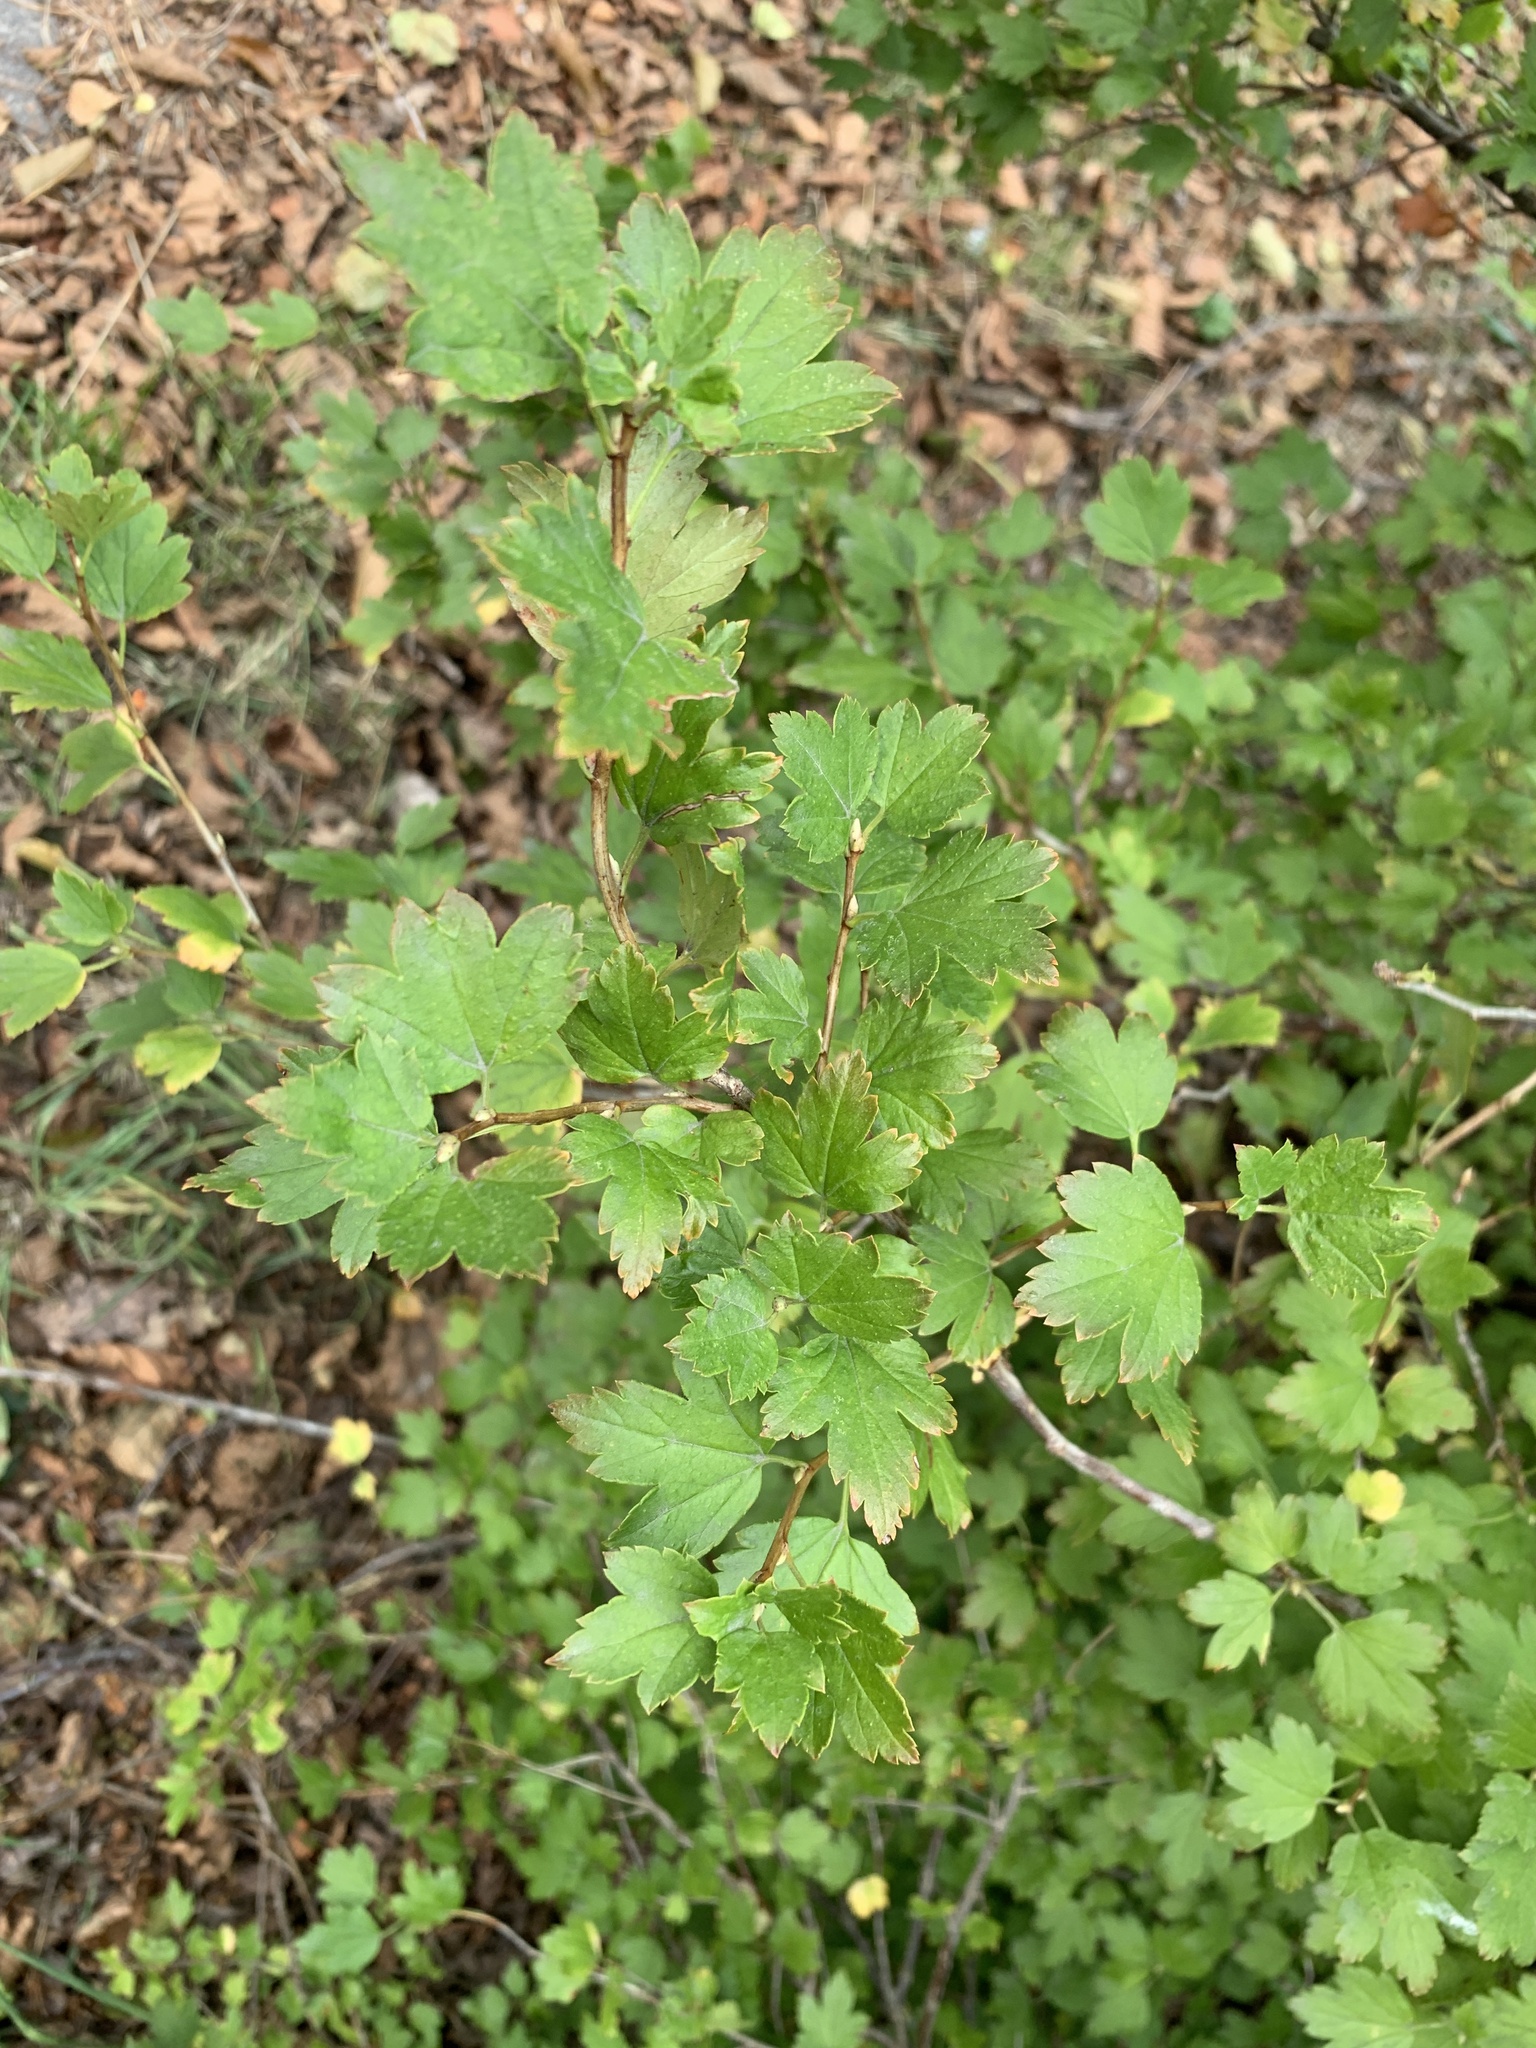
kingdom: Plantae
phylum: Tracheophyta
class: Magnoliopsida
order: Saxifragales
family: Grossulariaceae
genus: Ribes
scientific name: Ribes alpinum
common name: Alpine currant
